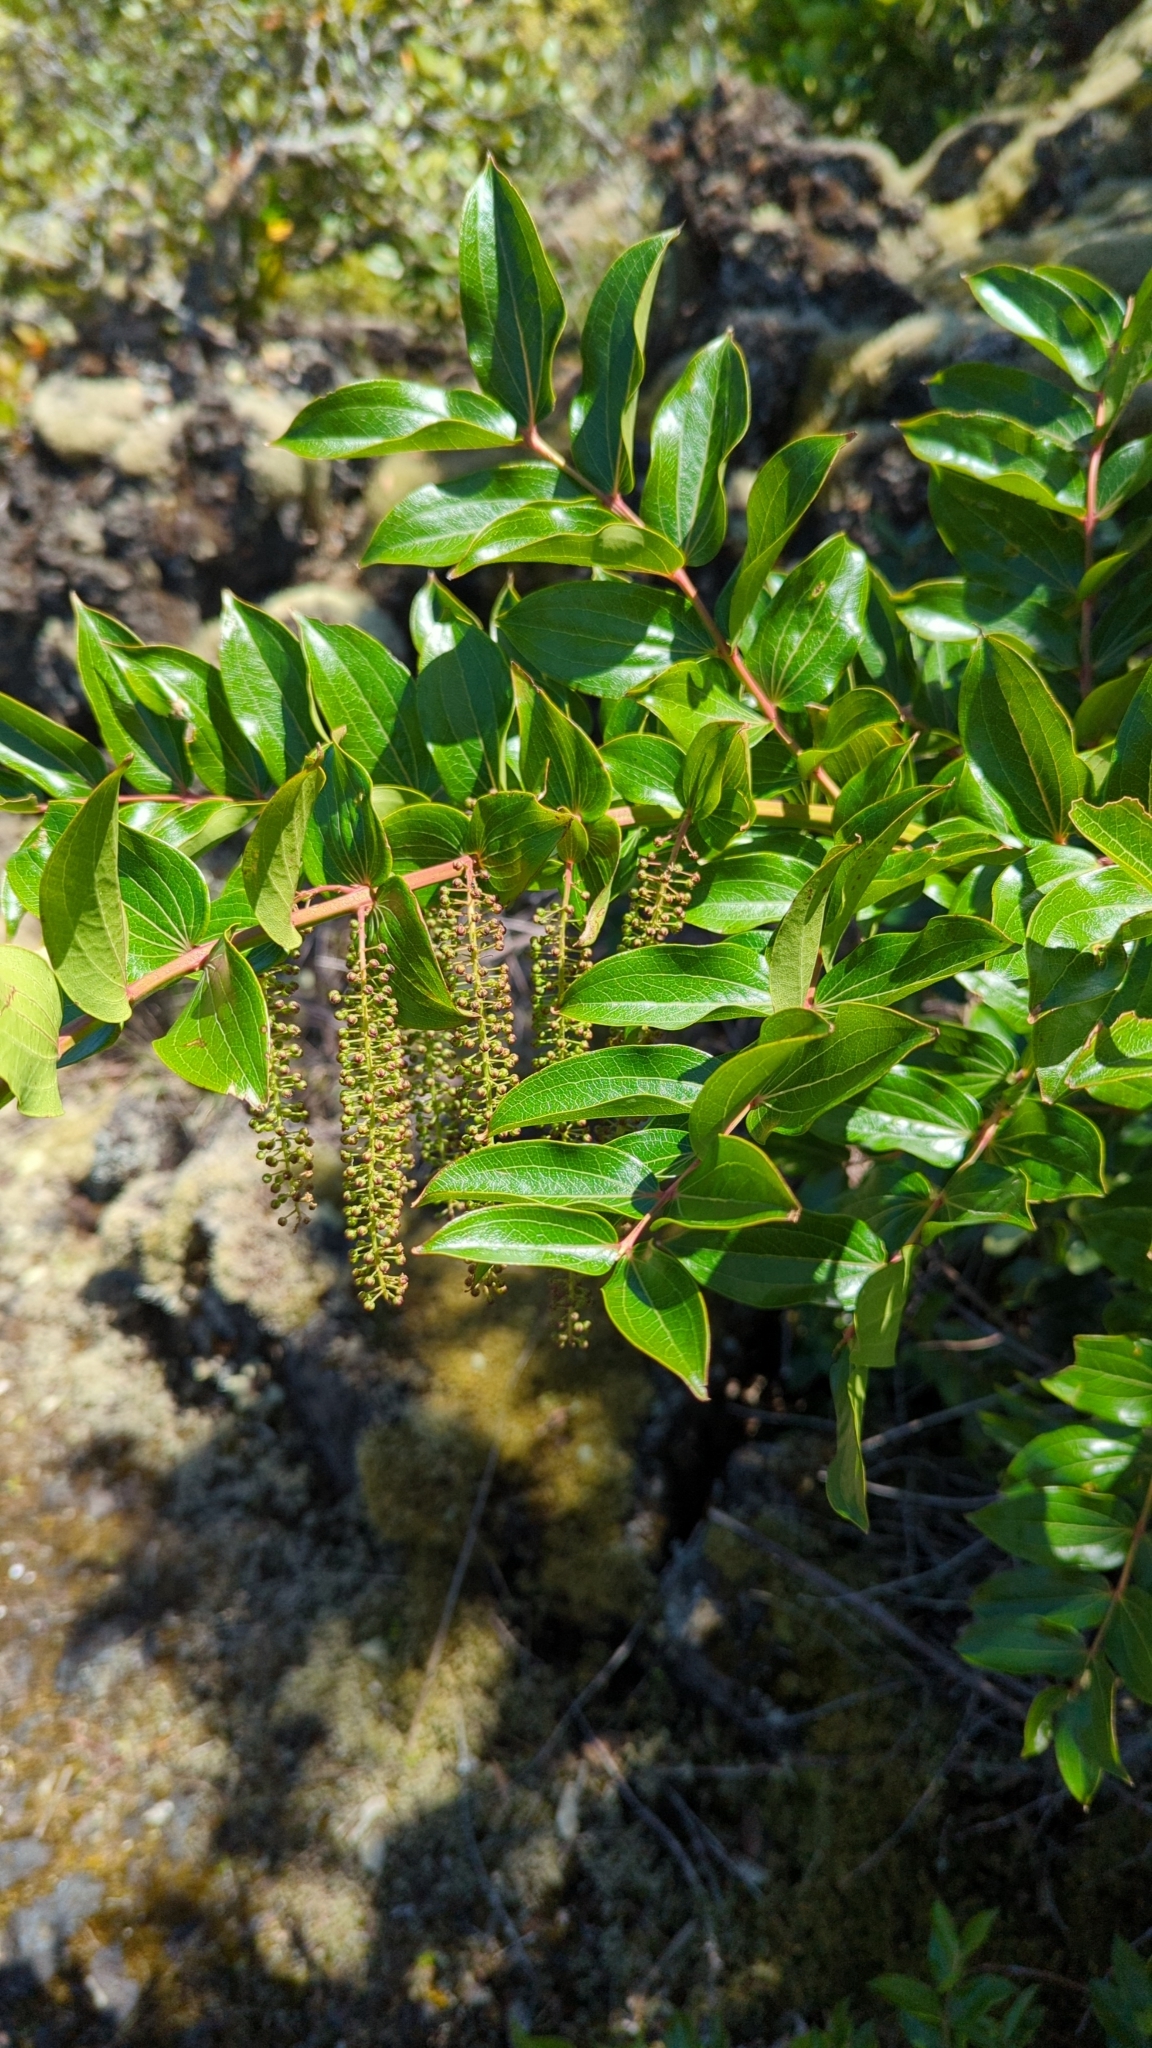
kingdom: Plantae
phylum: Tracheophyta
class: Magnoliopsida
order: Cucurbitales
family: Coriariaceae
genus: Coriaria
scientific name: Coriaria arborea
